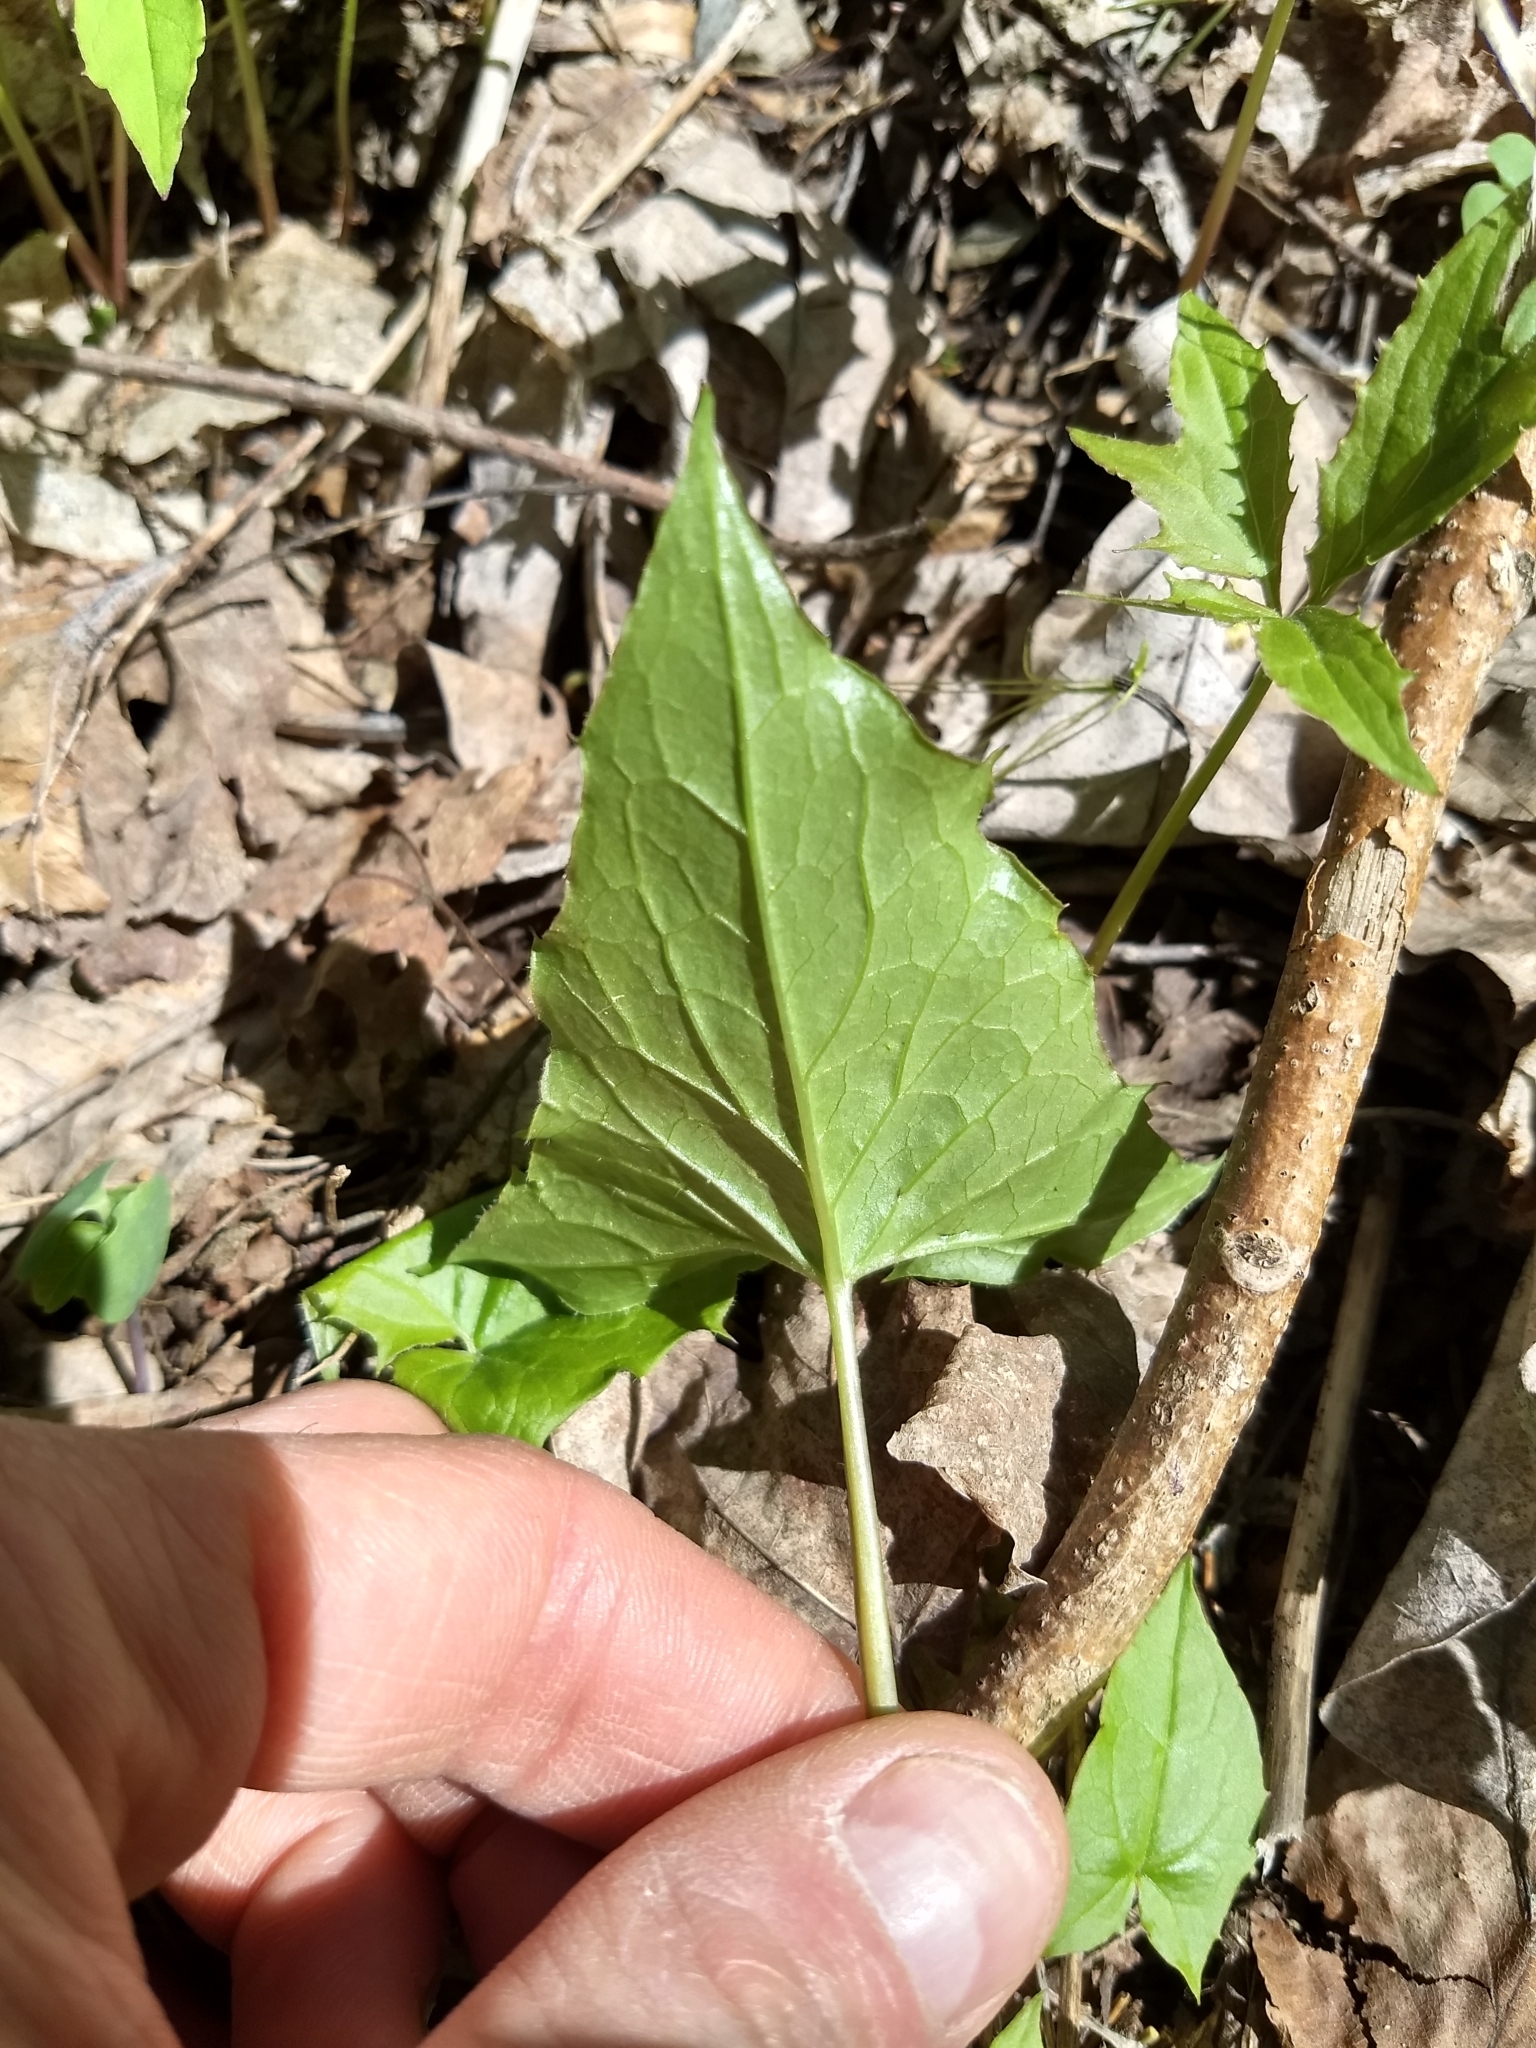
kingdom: Plantae
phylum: Tracheophyta
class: Magnoliopsida
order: Asterales
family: Asteraceae
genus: Nabalus
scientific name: Nabalus altissima
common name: Tall rattlesnakeroot
